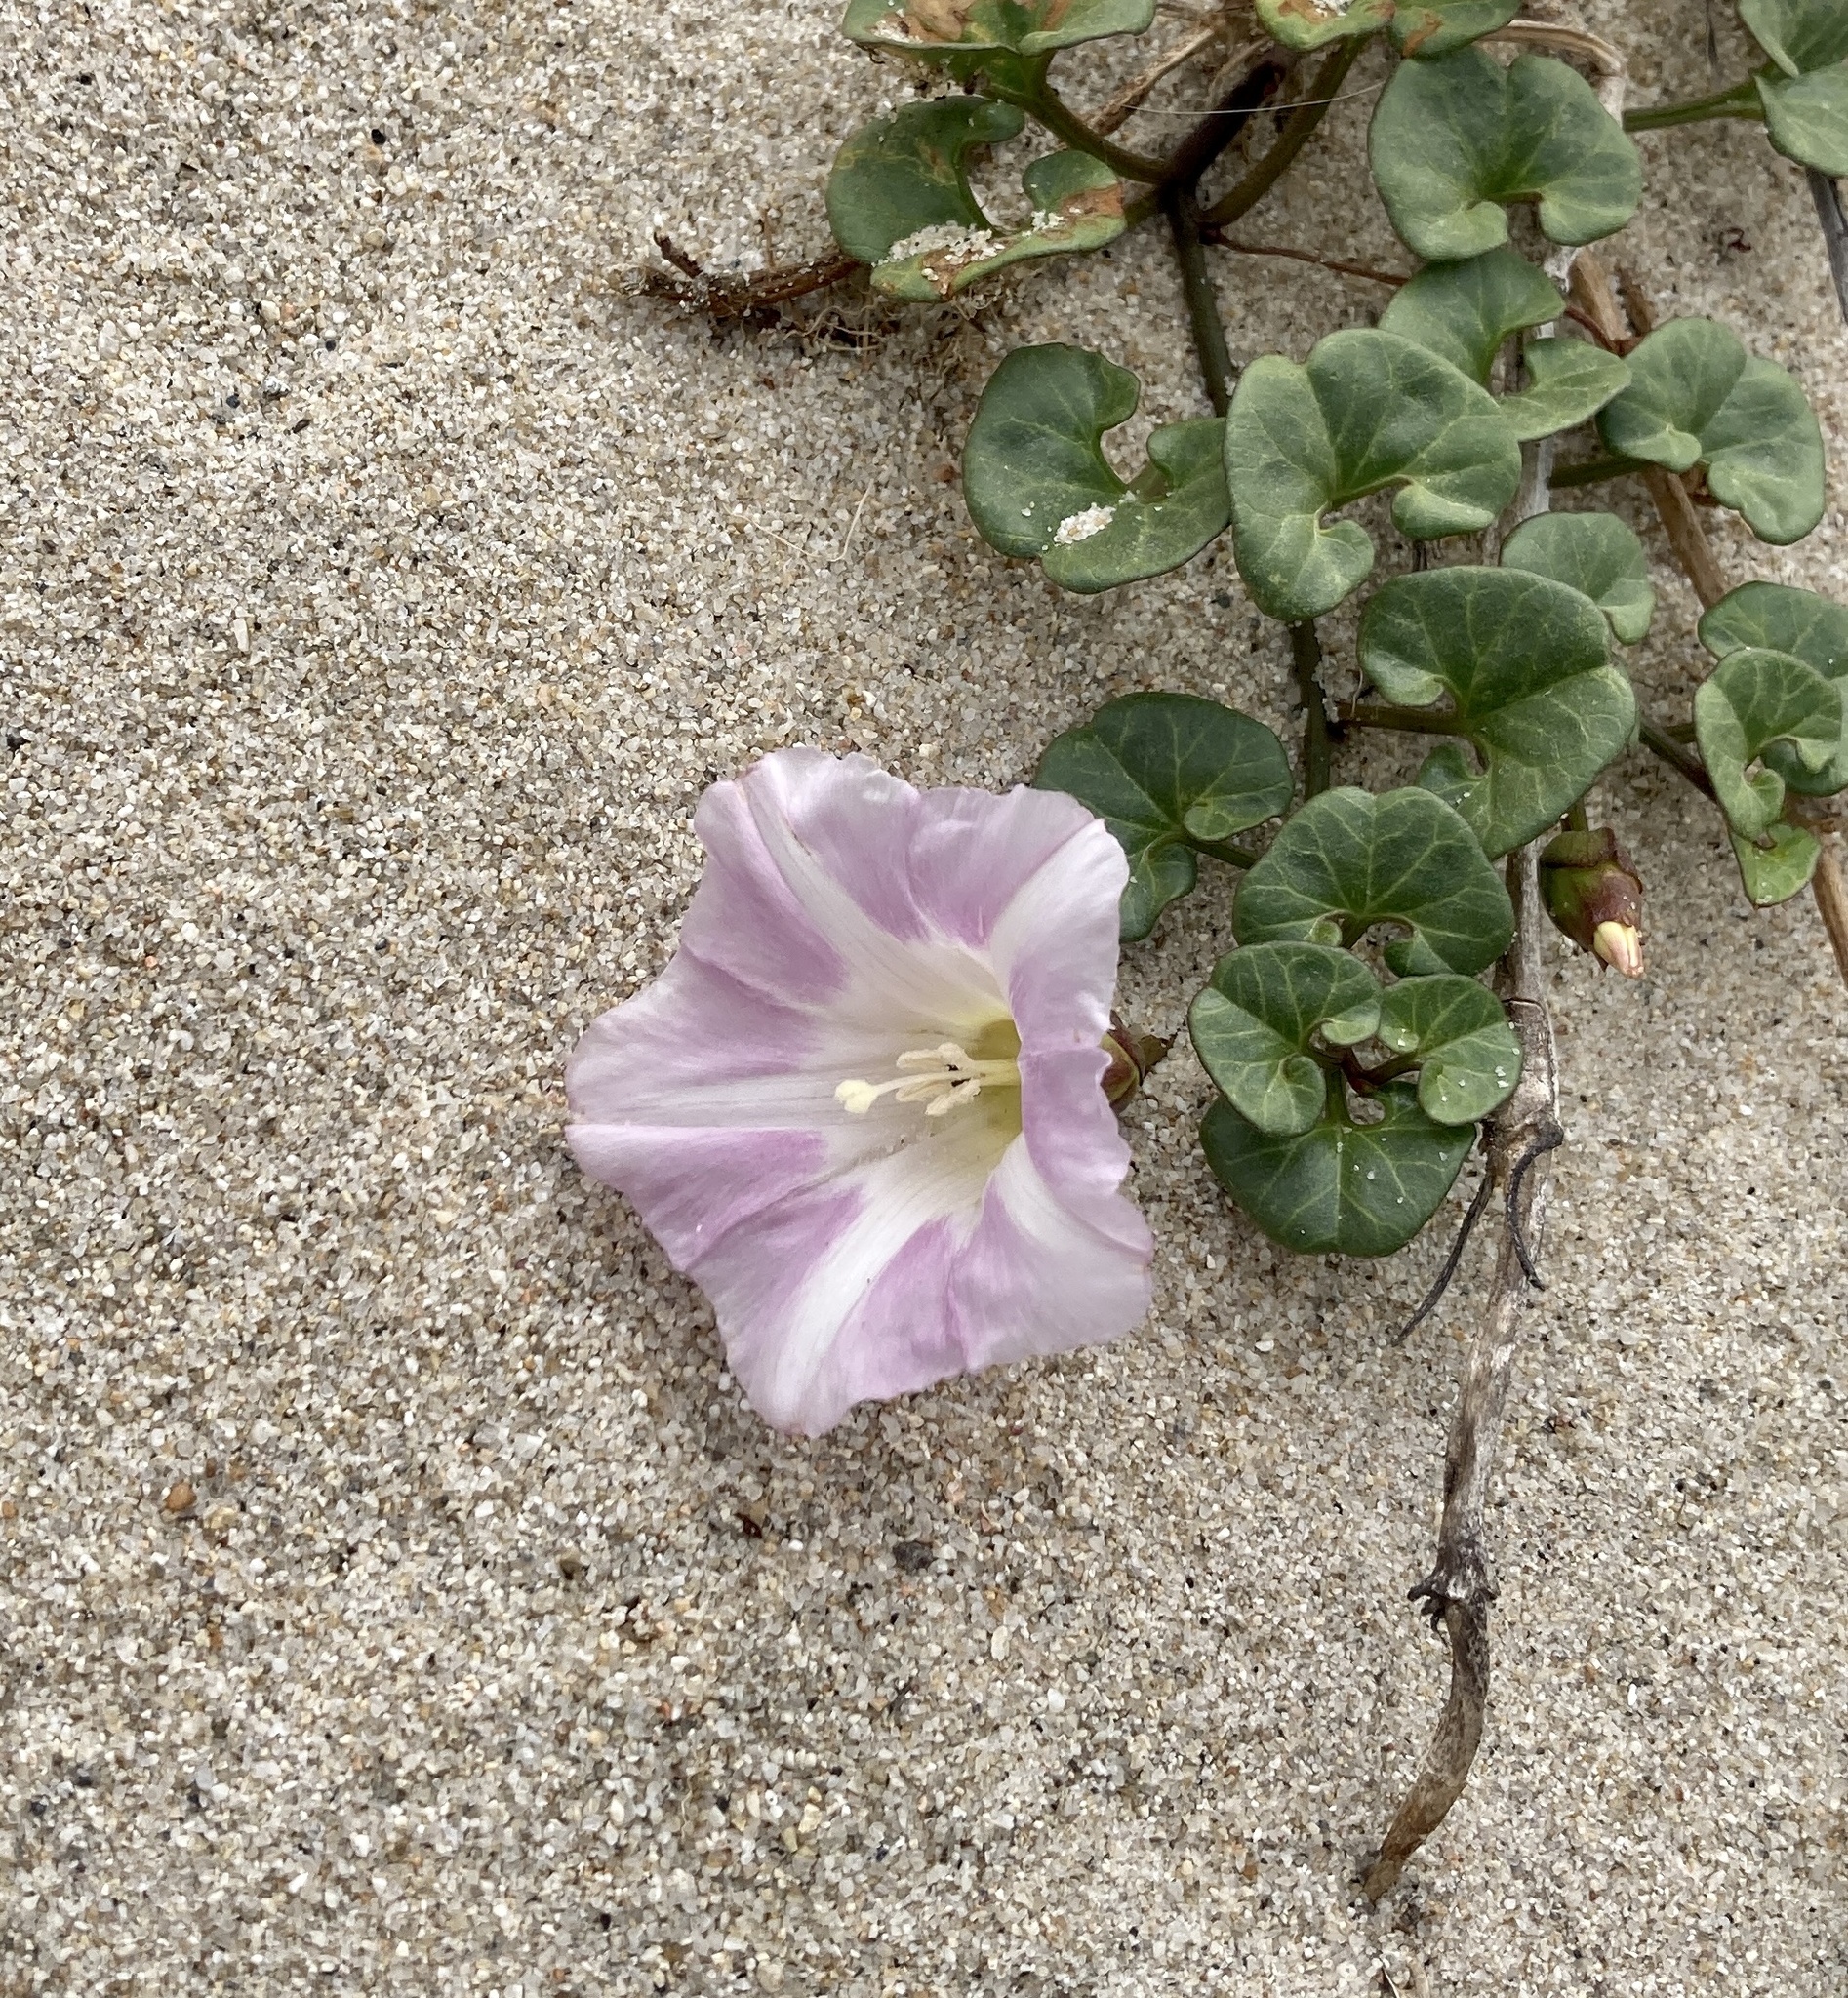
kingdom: Plantae
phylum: Tracheophyta
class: Magnoliopsida
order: Solanales
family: Convolvulaceae
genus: Calystegia
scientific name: Calystegia soldanella
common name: Sea bindweed
